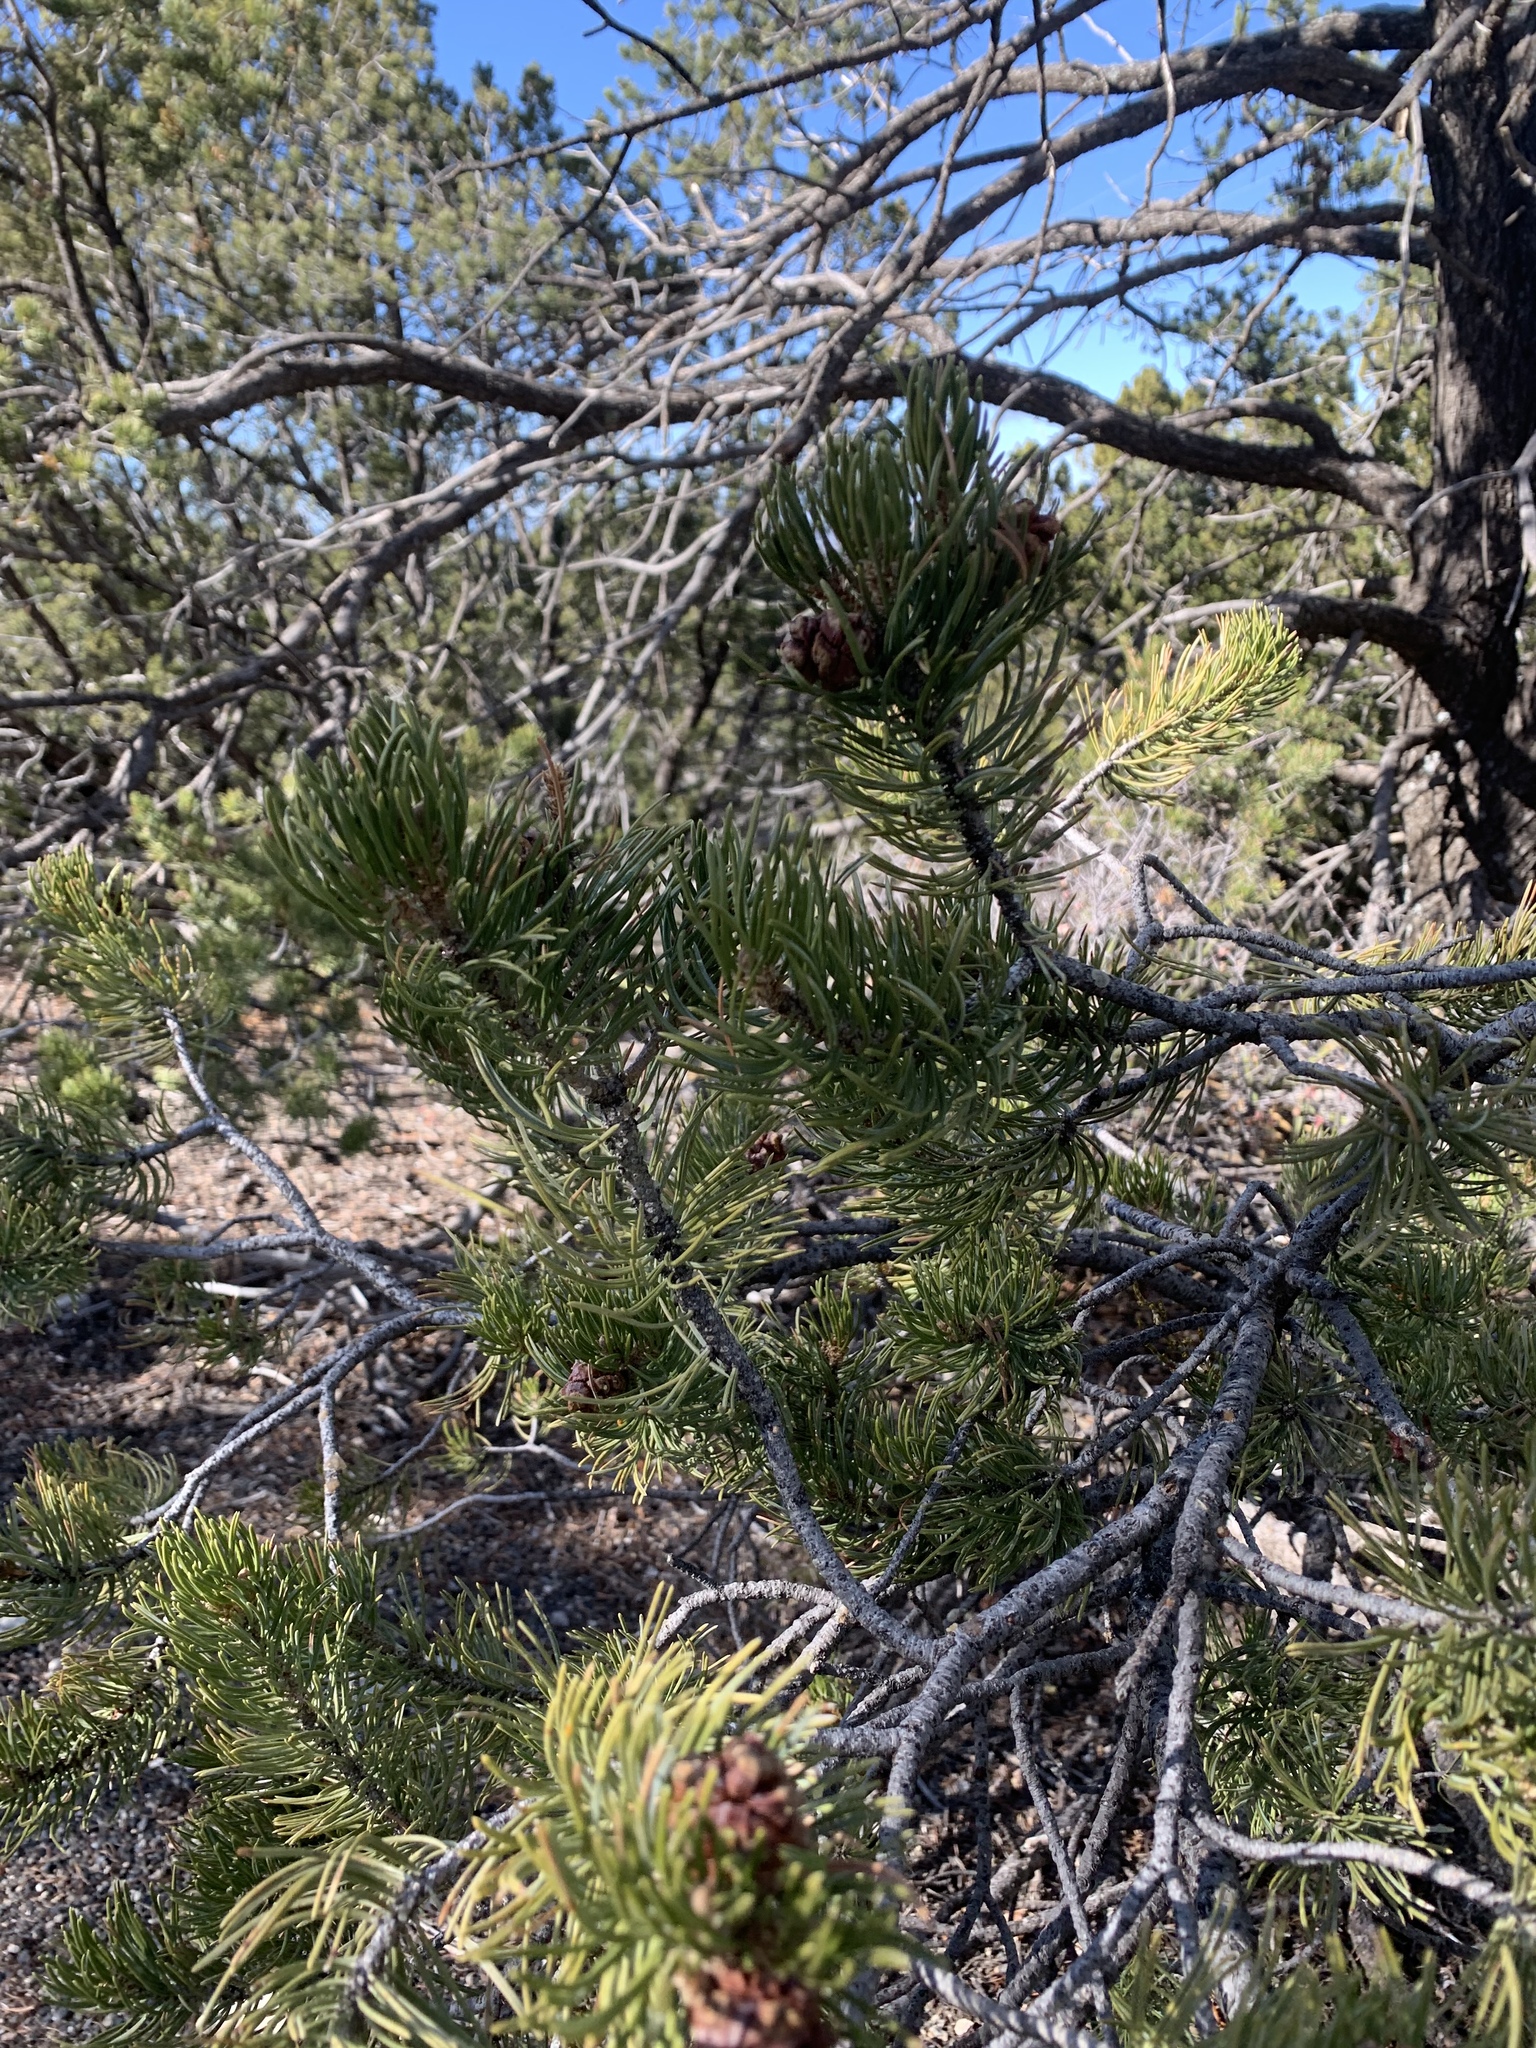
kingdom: Plantae
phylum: Tracheophyta
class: Pinopsida
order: Pinales
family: Pinaceae
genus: Pinus
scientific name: Pinus edulis
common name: Colorado pinyon
